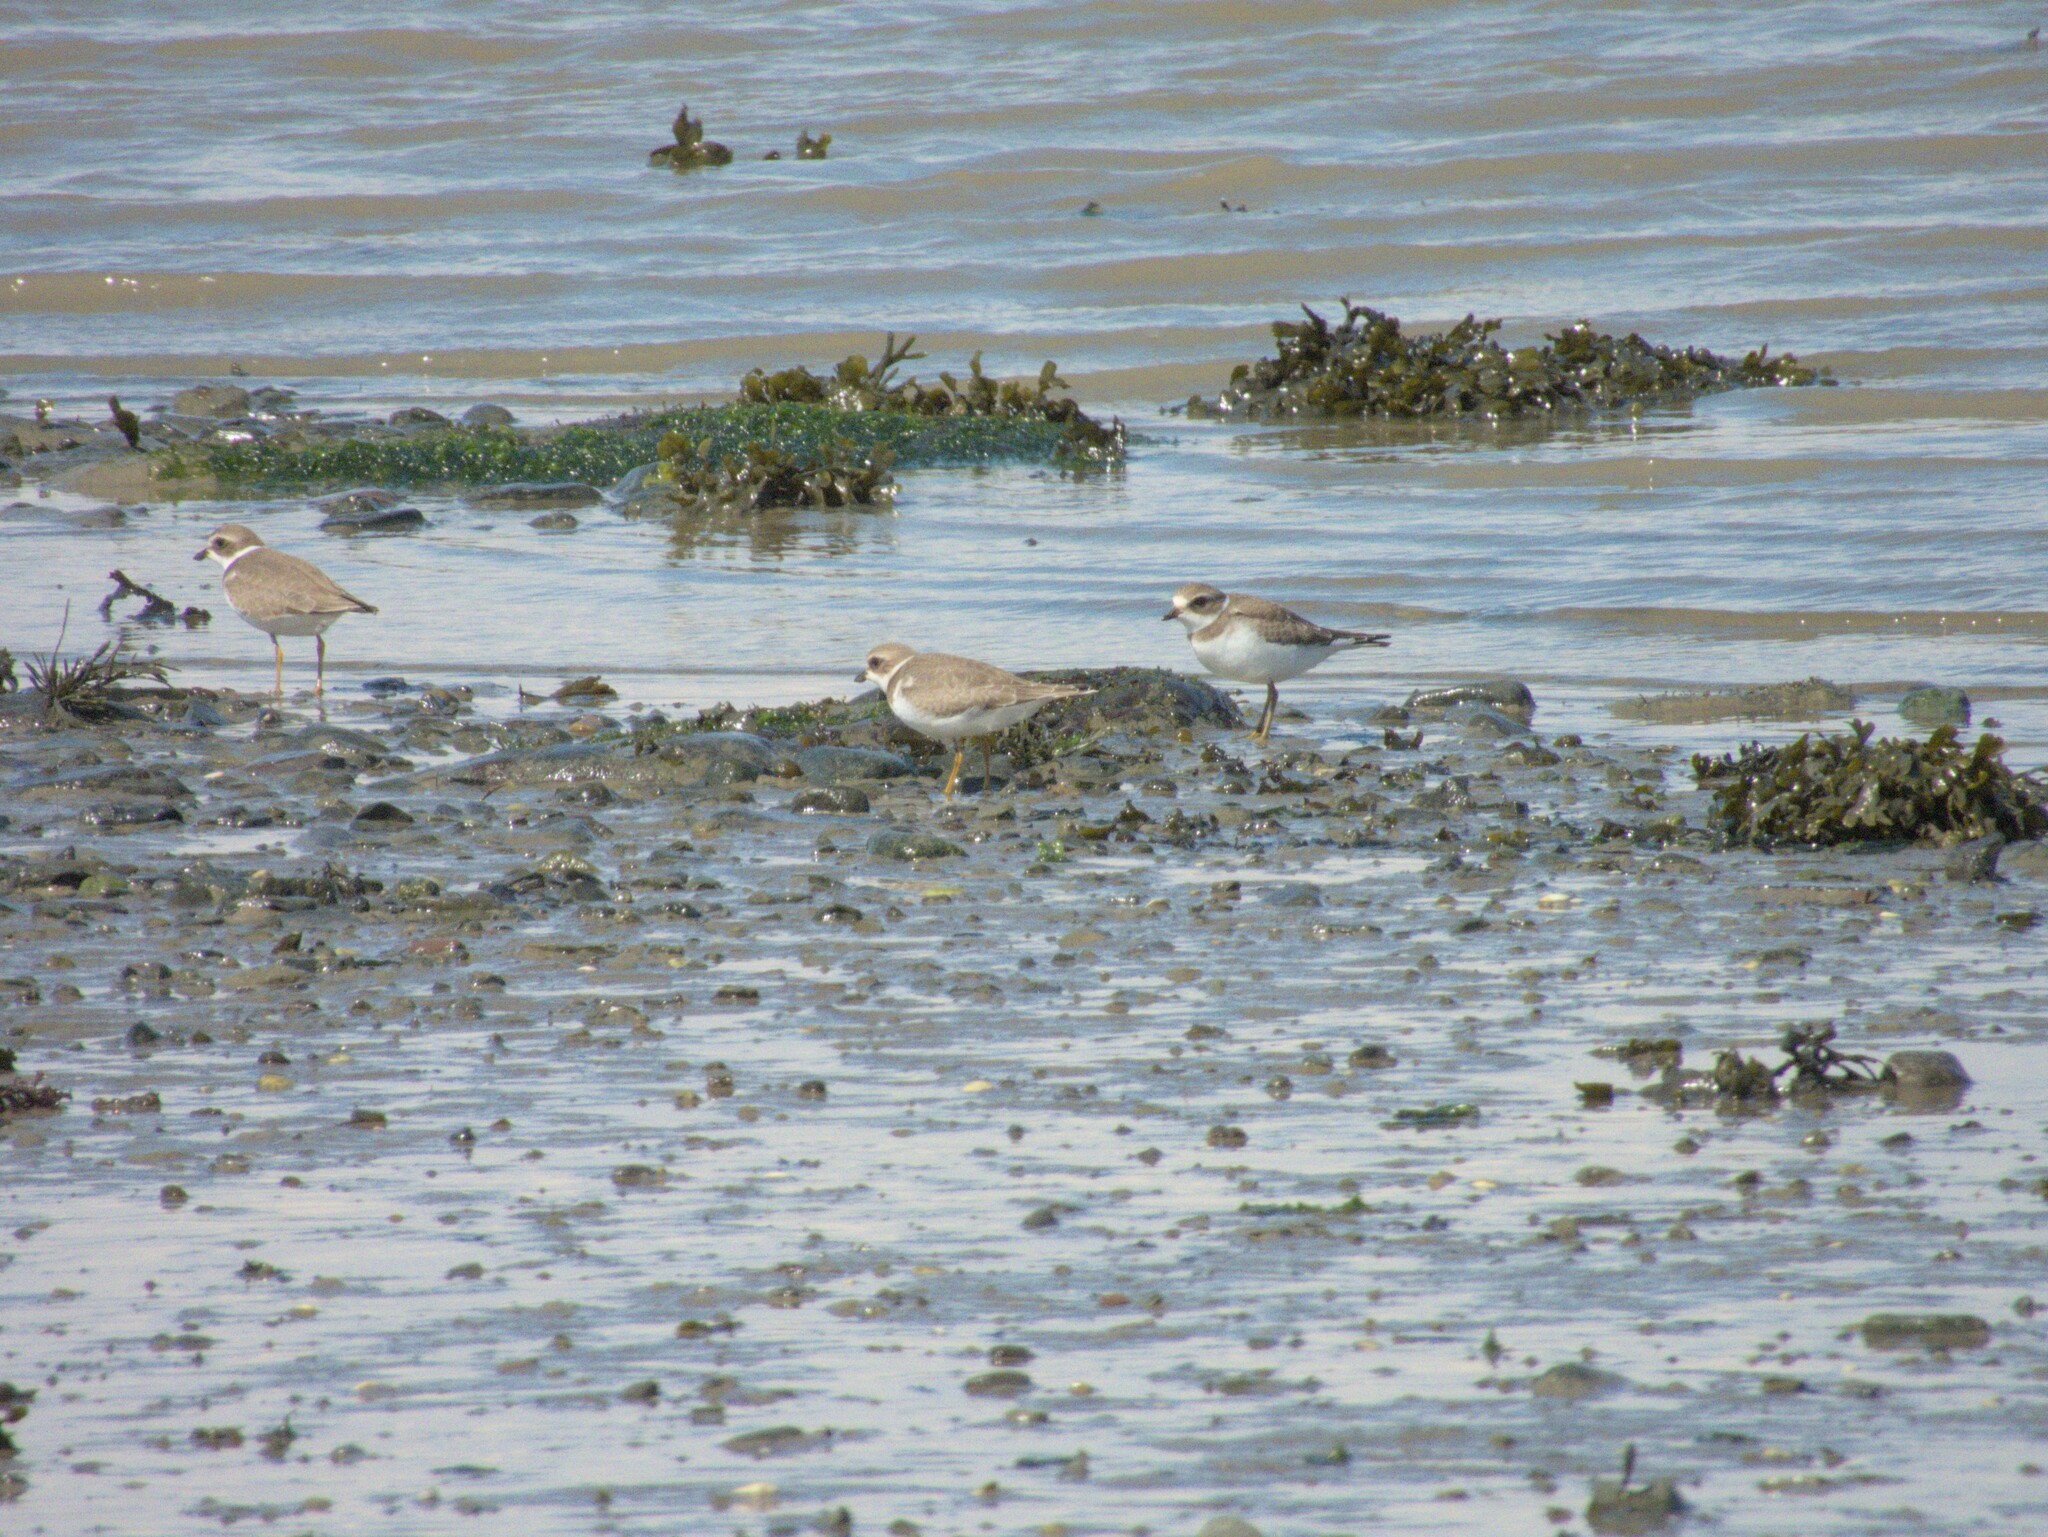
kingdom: Animalia
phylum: Chordata
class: Aves
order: Charadriiformes
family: Charadriidae
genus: Charadrius
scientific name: Charadrius semipalmatus
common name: Semipalmated plover
